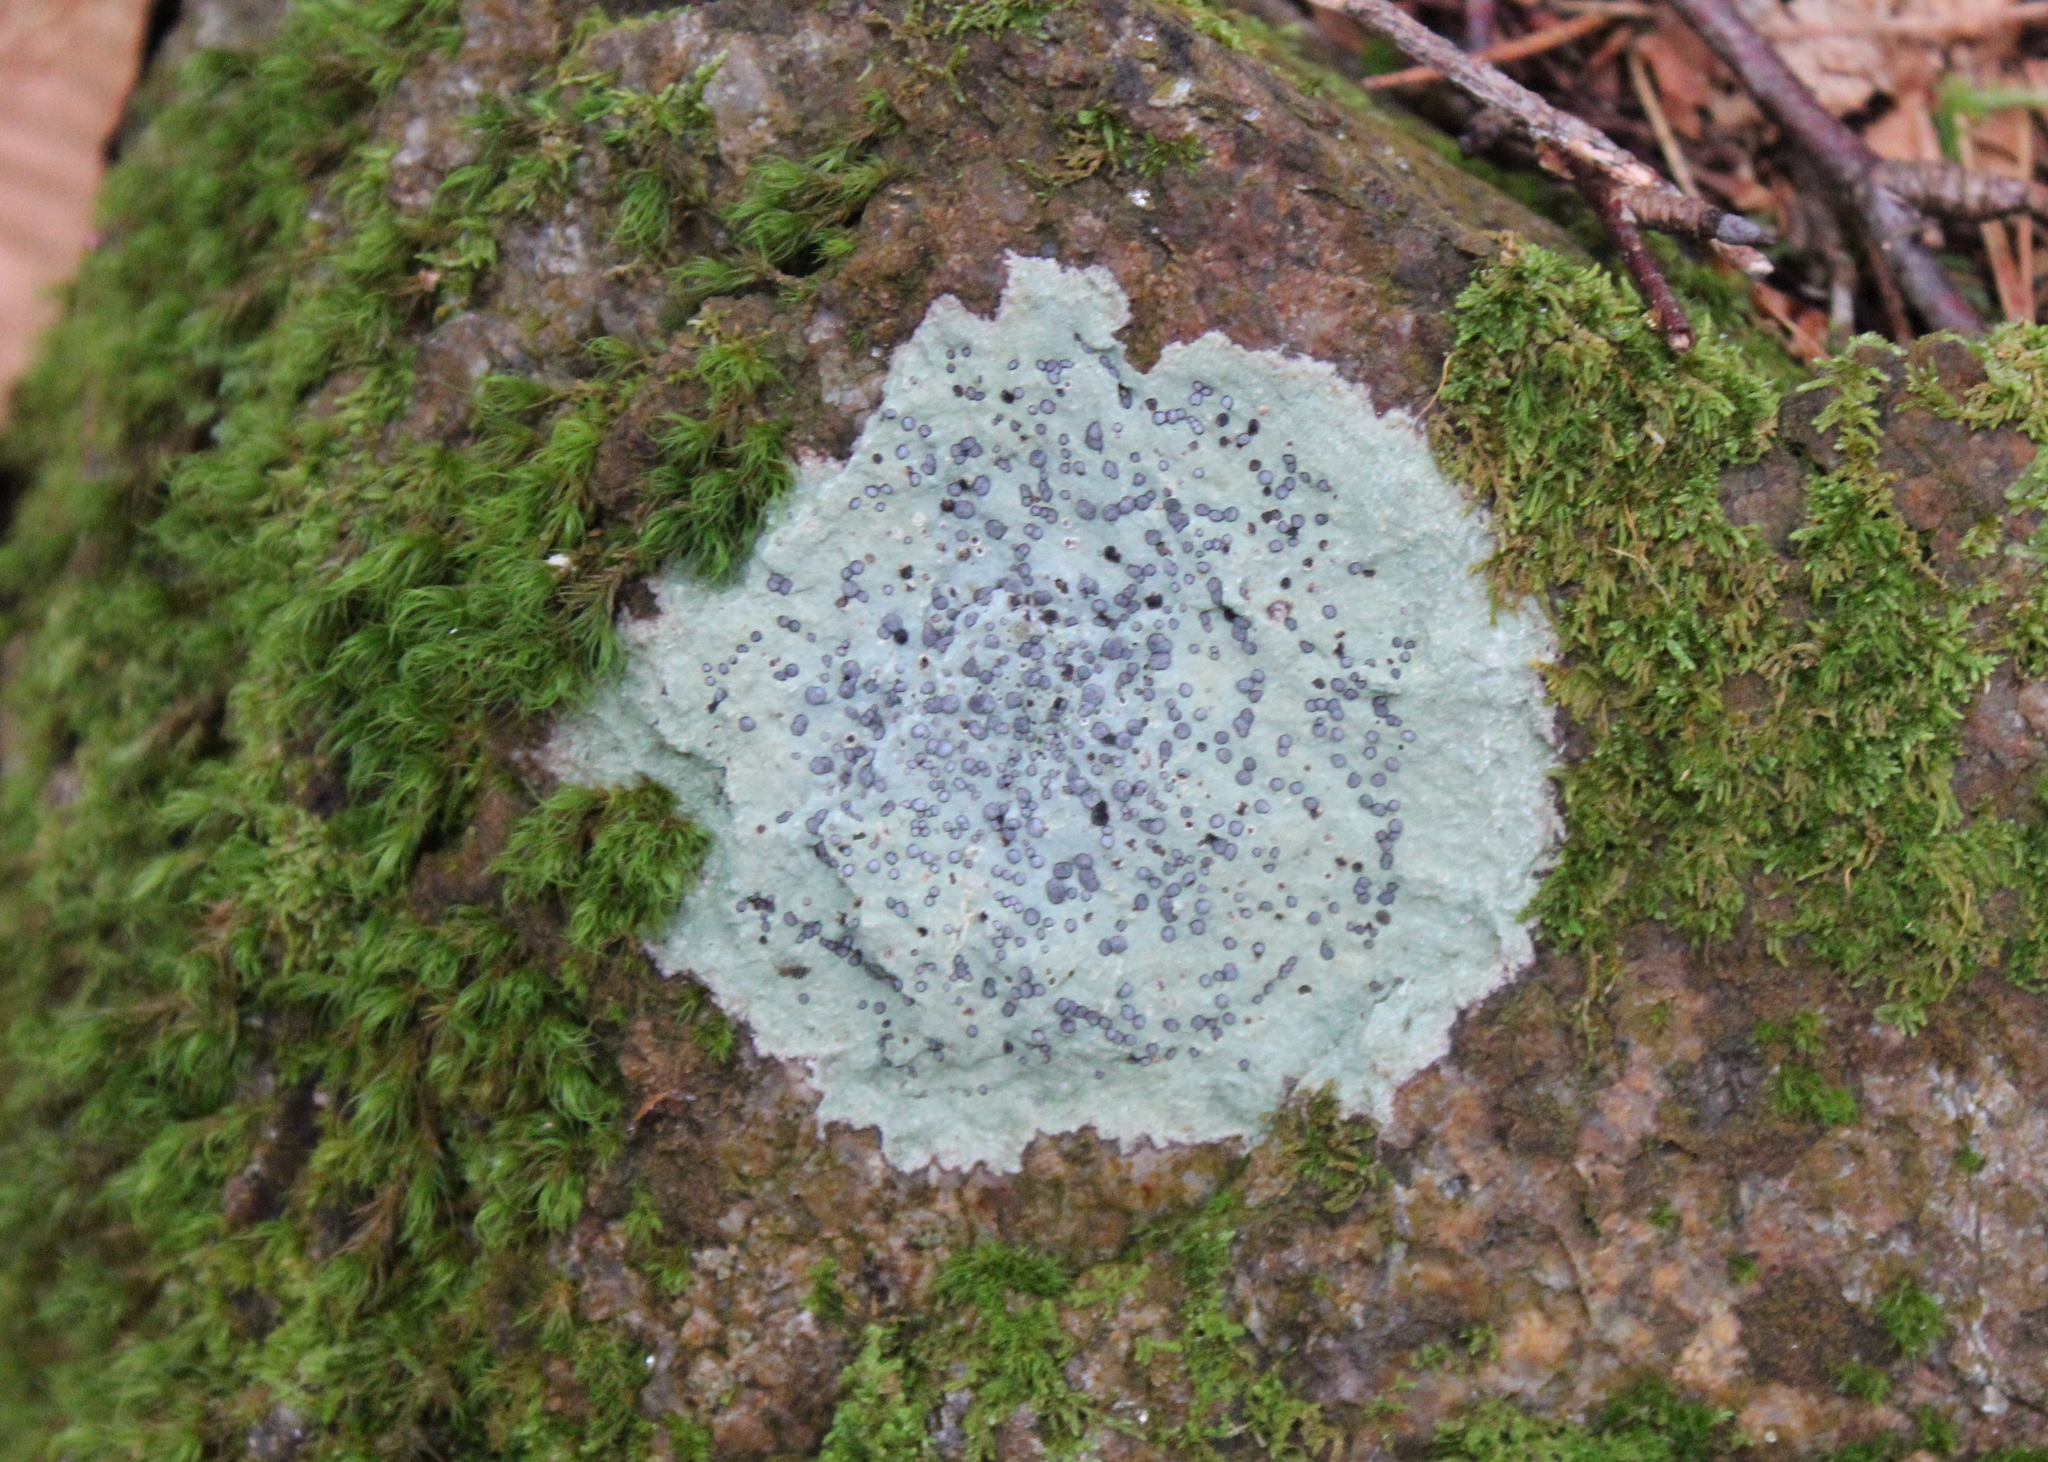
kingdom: Fungi
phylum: Ascomycota
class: Lecanoromycetes
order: Lecideales
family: Lecideaceae
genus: Porpidia
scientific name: Porpidia albocaerulescens
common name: Smokey-eyed boulder lichen
